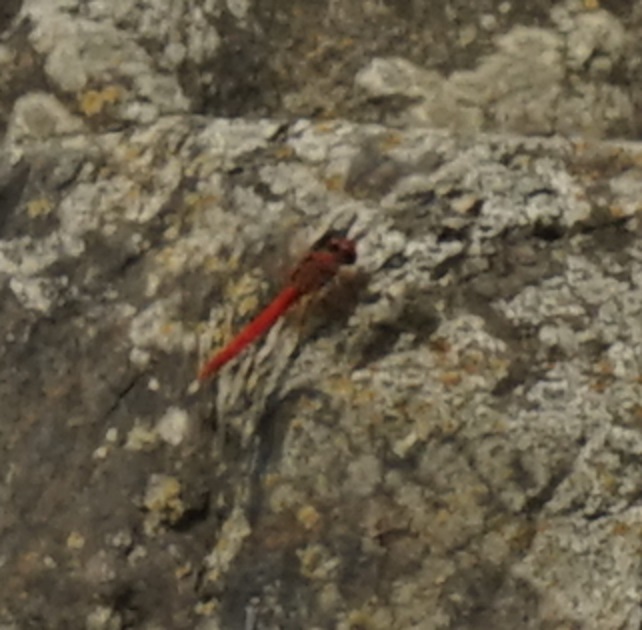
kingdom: Animalia
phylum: Arthropoda
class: Insecta
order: Odonata
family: Libellulidae
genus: Diplacodes
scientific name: Diplacodes haematodes
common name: Scarlet percher
